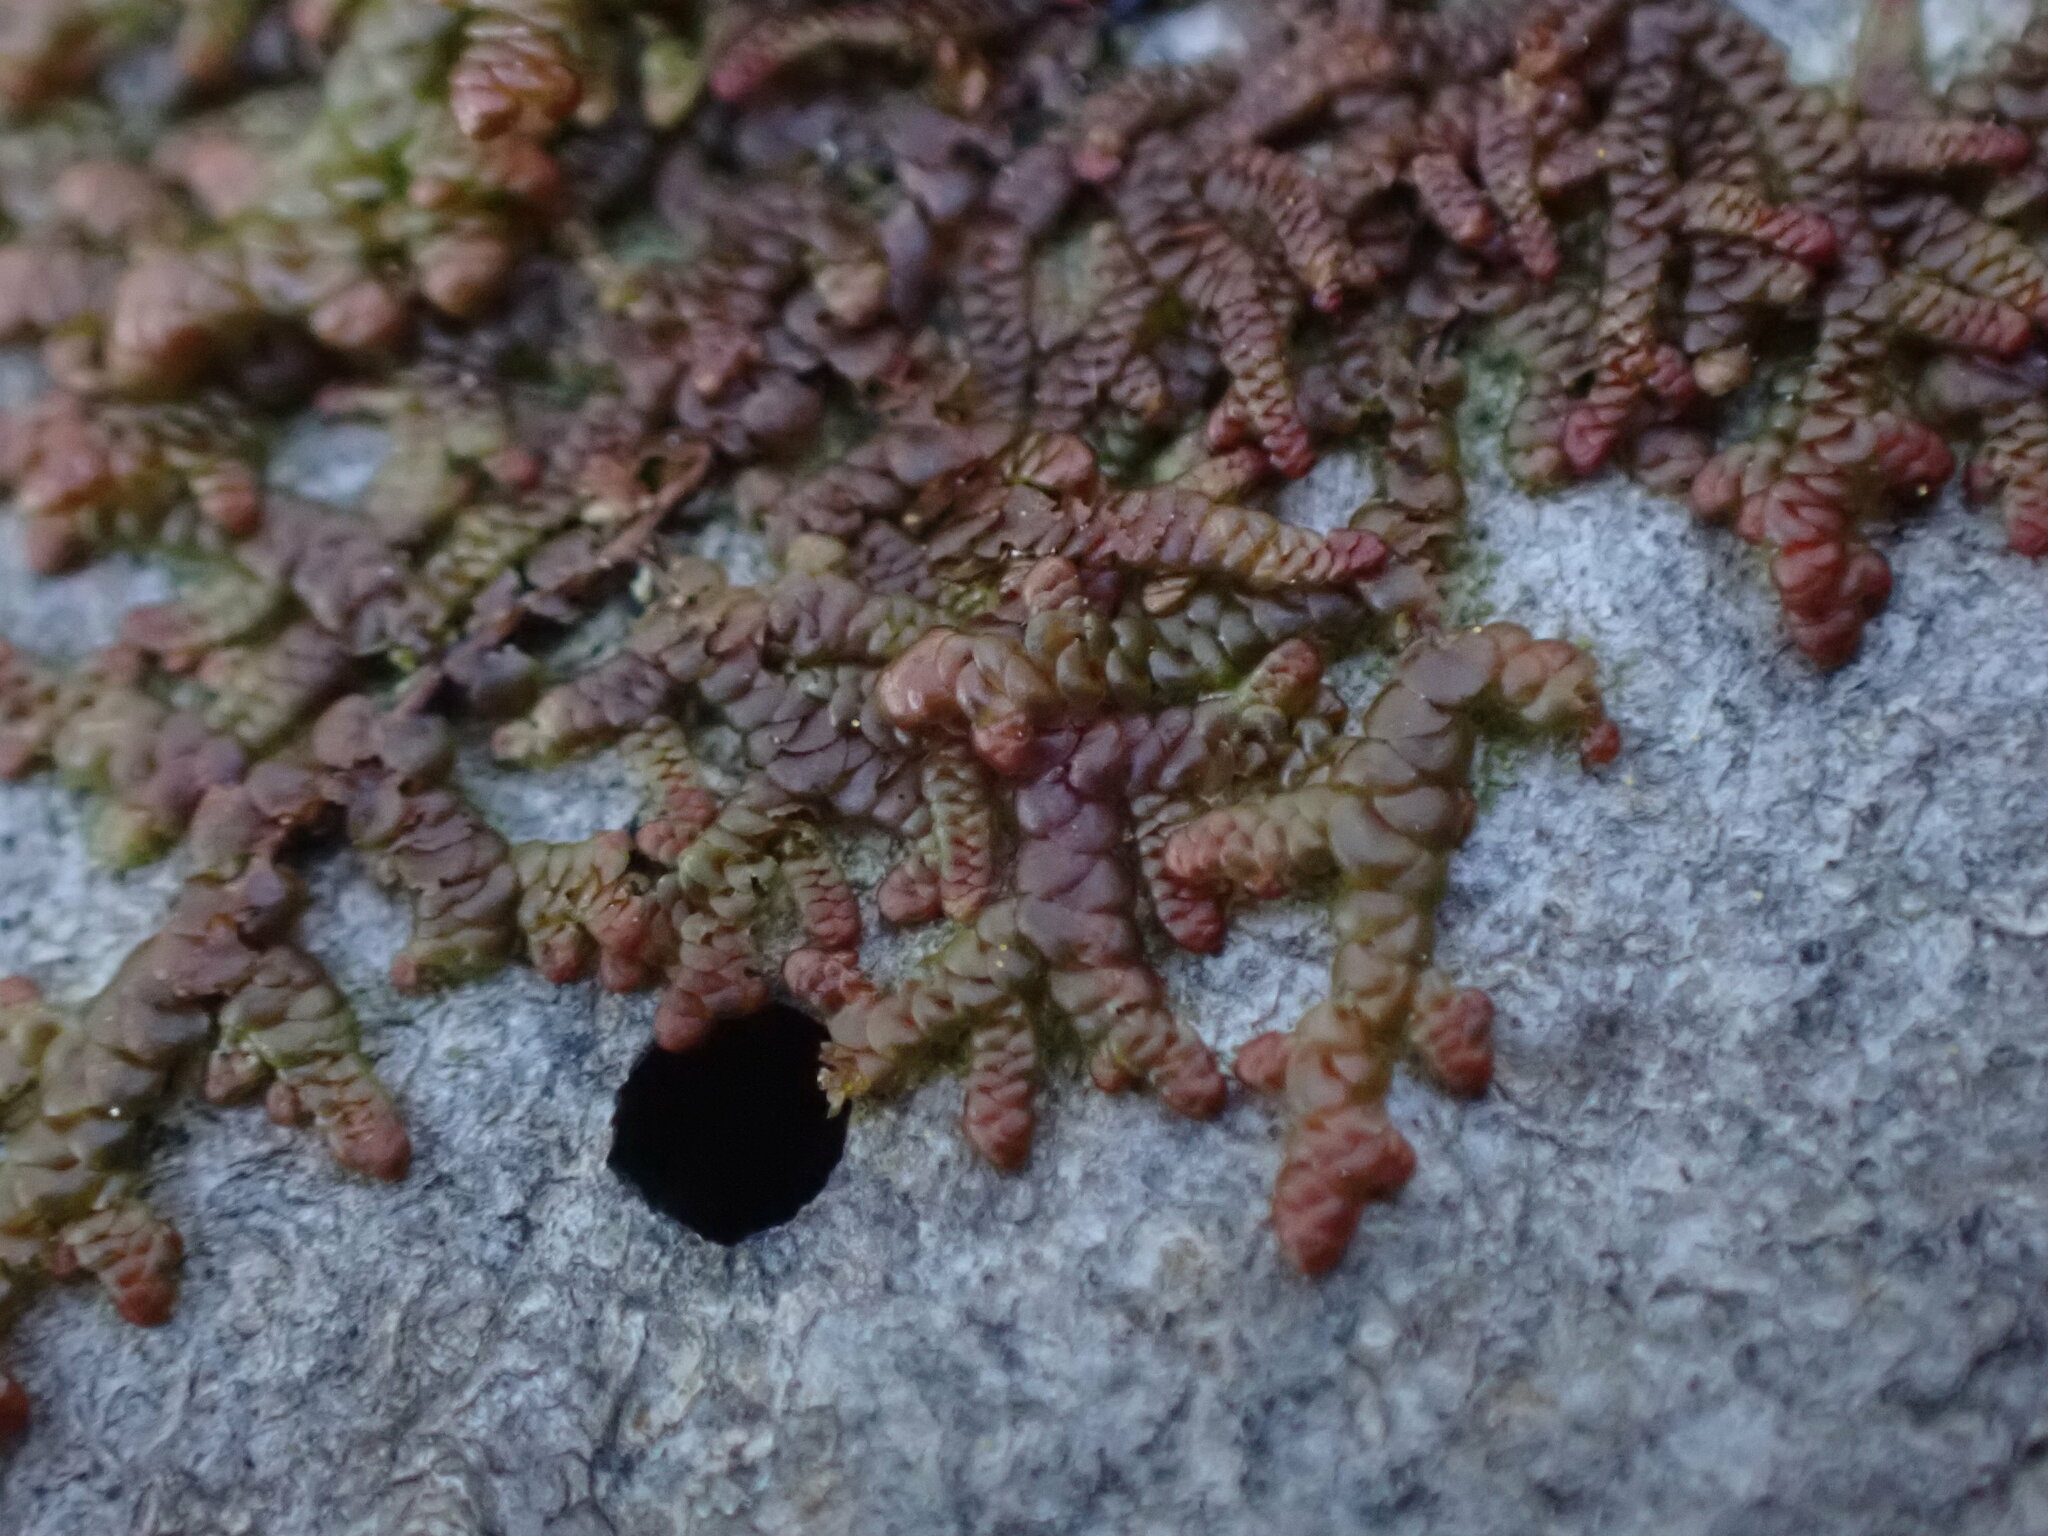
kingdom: Plantae
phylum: Marchantiophyta
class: Jungermanniopsida
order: Porellales
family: Frullaniaceae
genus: Frullania
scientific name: Frullania nisquallensis
